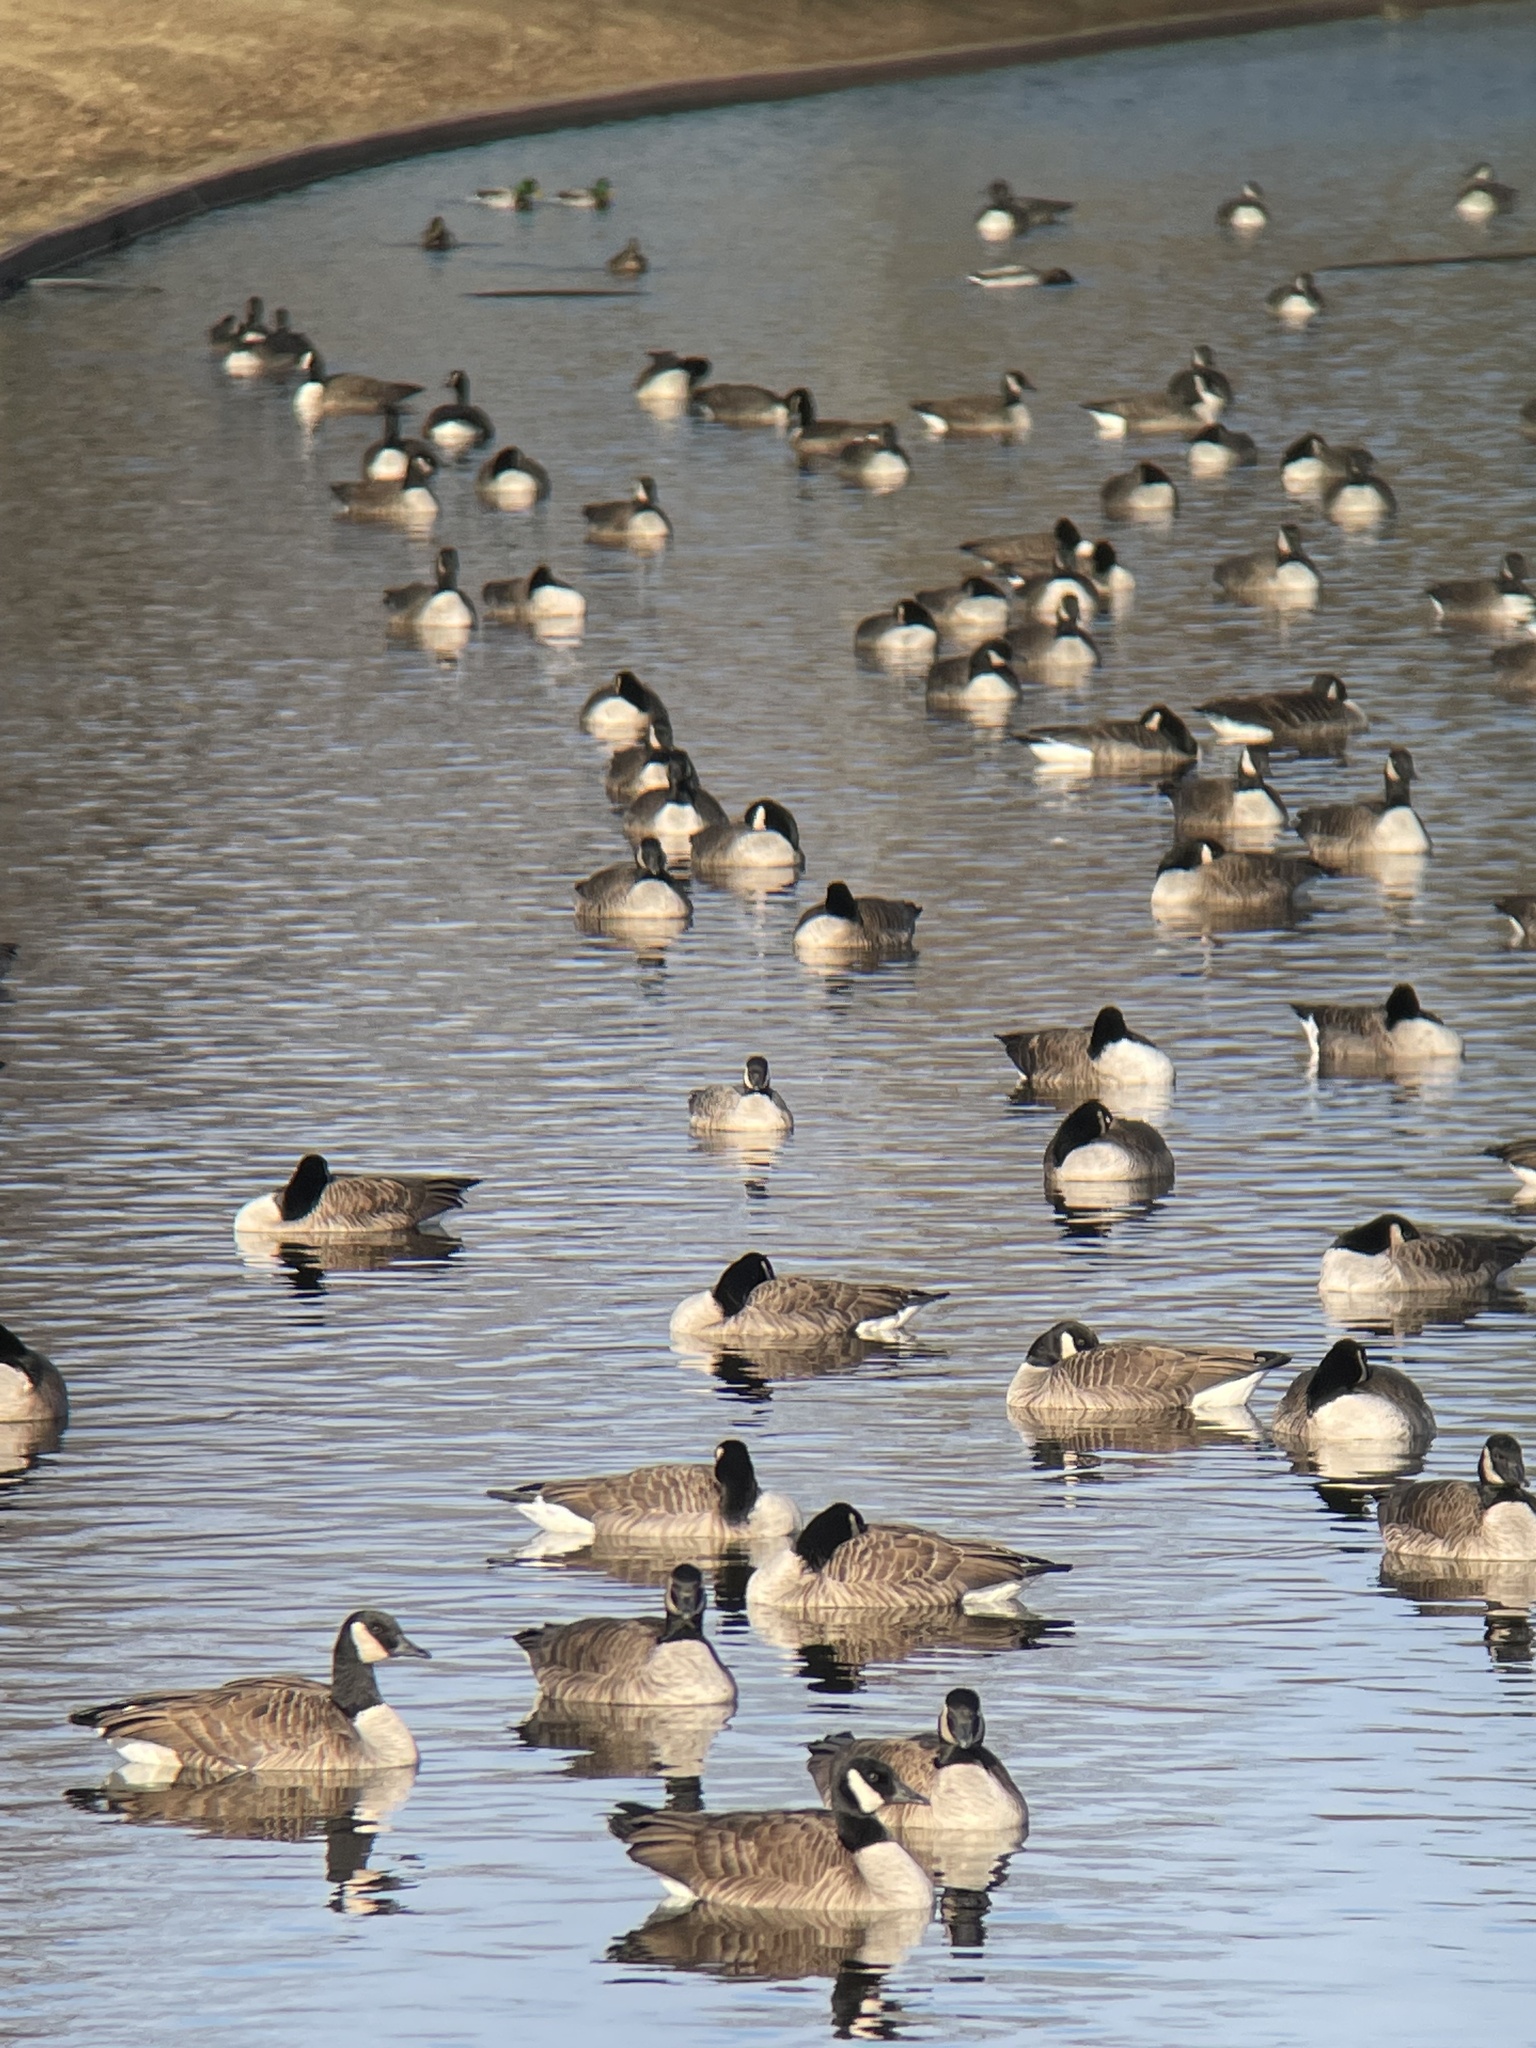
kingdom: Animalia
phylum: Chordata
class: Aves
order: Anseriformes
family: Anatidae
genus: Branta
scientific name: Branta hutchinsii
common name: Cackling goose
